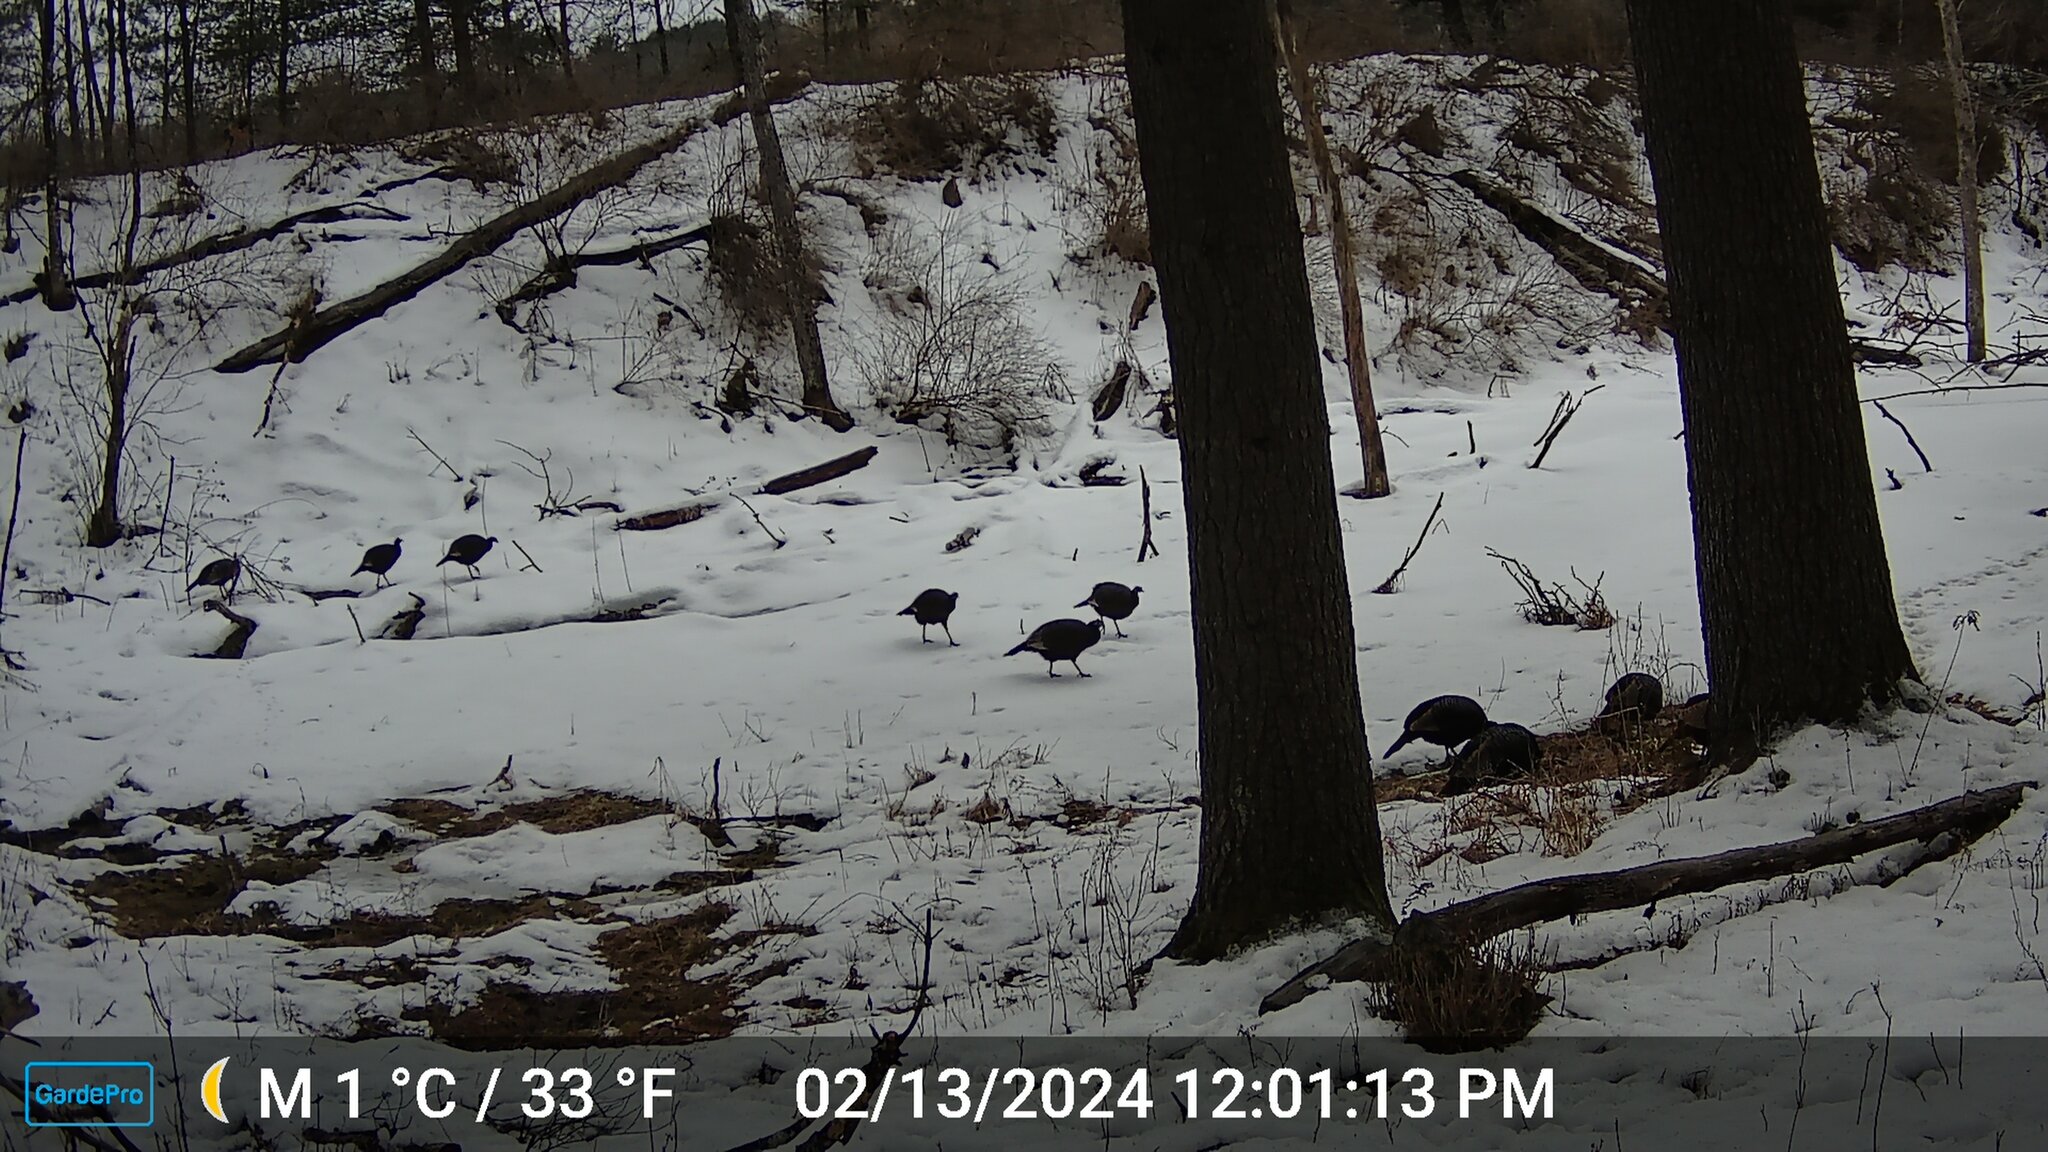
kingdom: Animalia
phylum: Chordata
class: Aves
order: Galliformes
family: Phasianidae
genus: Meleagris
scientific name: Meleagris gallopavo
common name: Wild turkey
